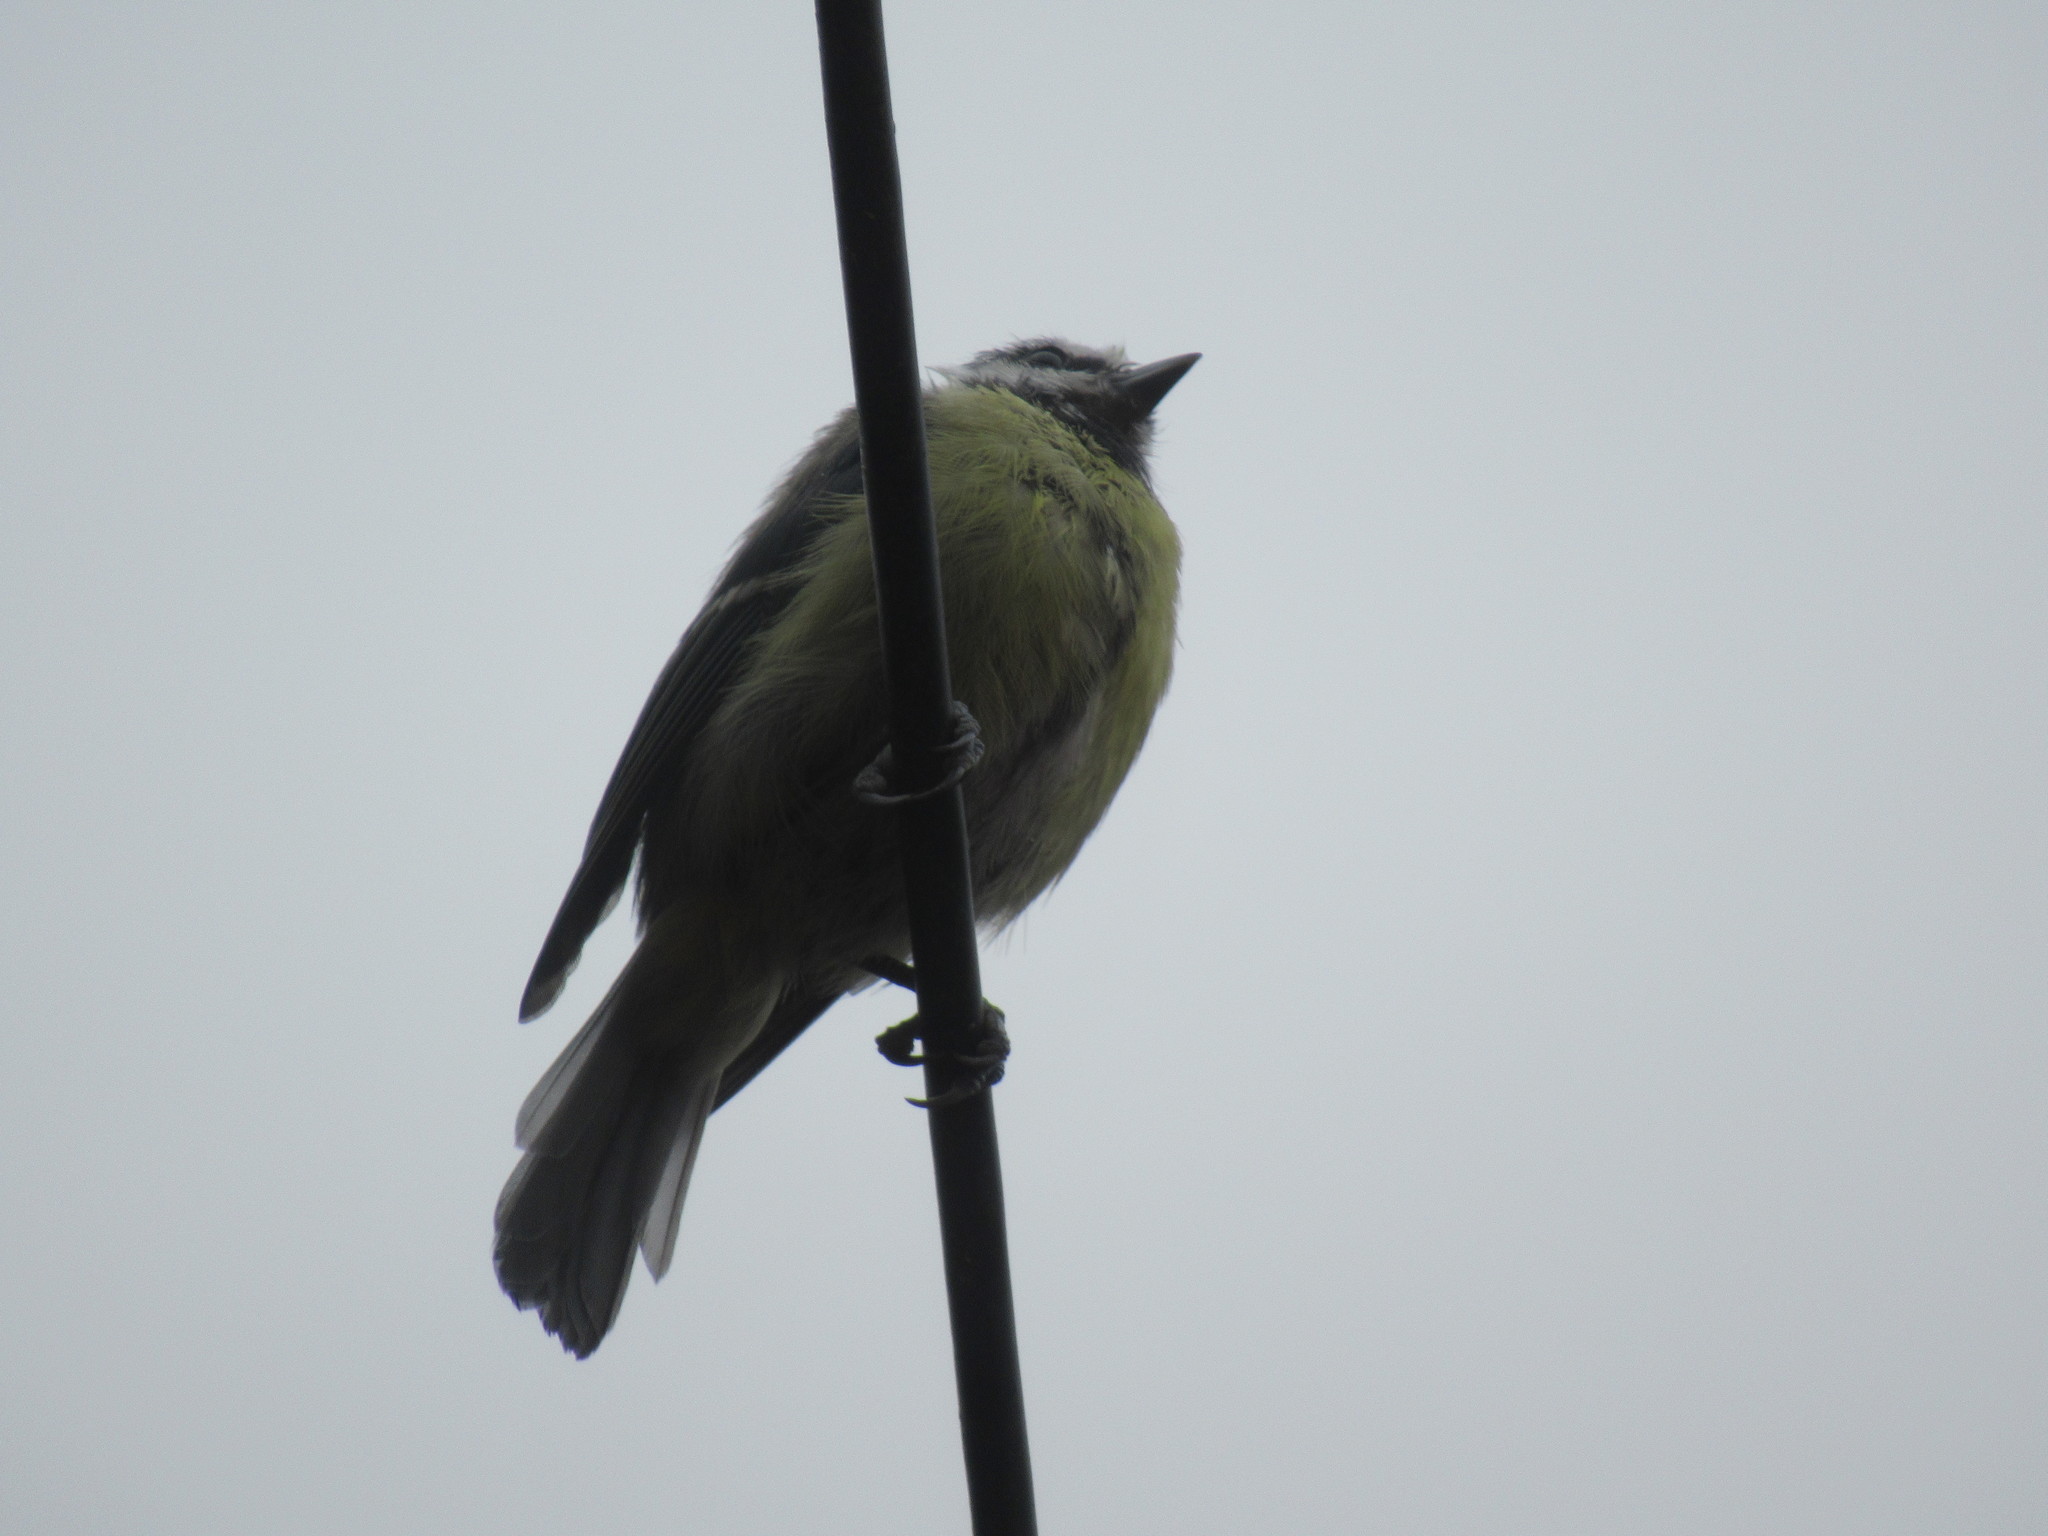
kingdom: Animalia
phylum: Chordata
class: Aves
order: Passeriformes
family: Paridae
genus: Cyanistes
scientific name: Cyanistes caeruleus
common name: Eurasian blue tit
